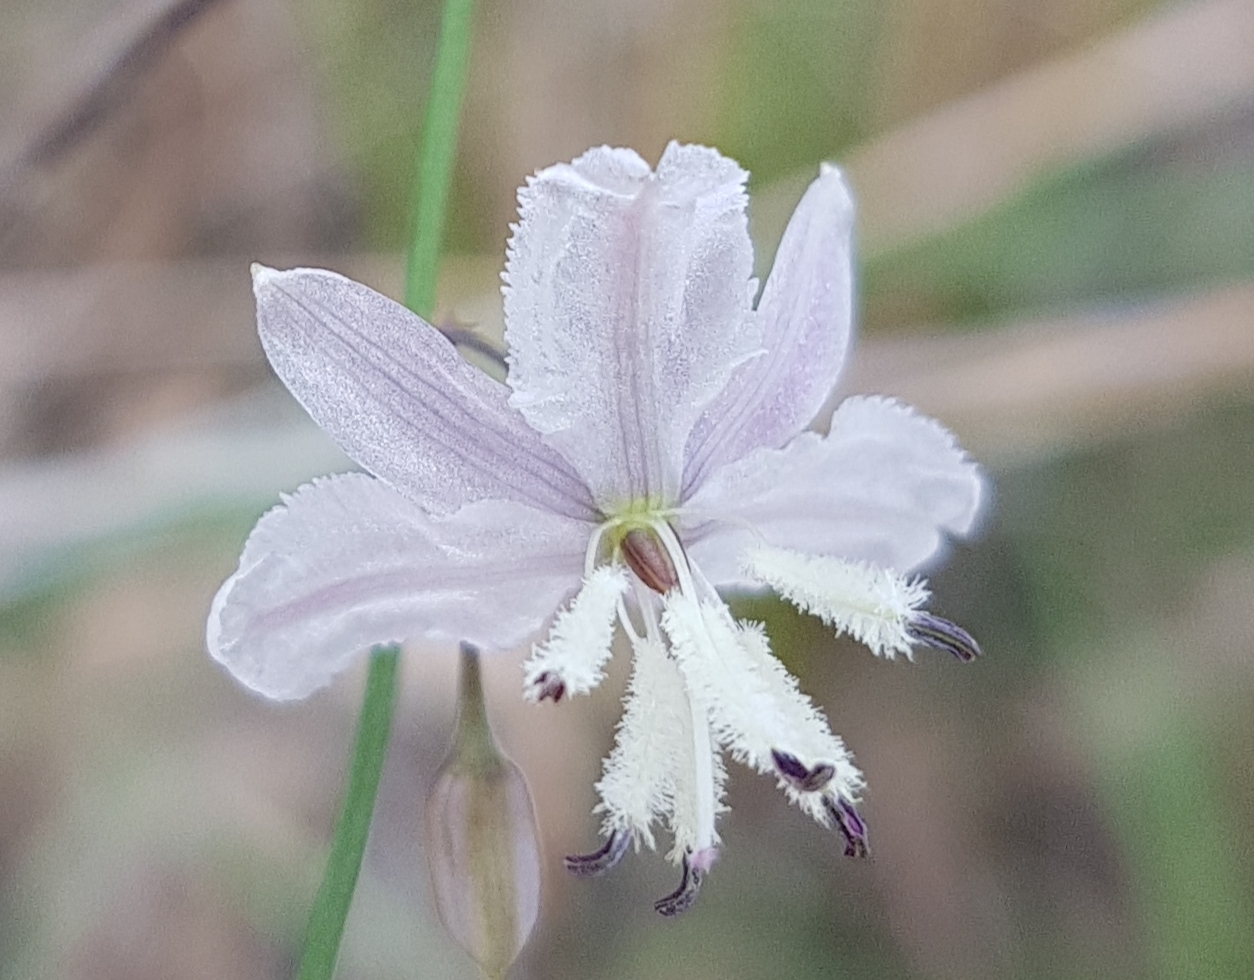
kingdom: Plantae
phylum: Tracheophyta
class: Liliopsida
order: Asparagales
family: Asparagaceae
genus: Arthropodium
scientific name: Arthropodium milleflorum
